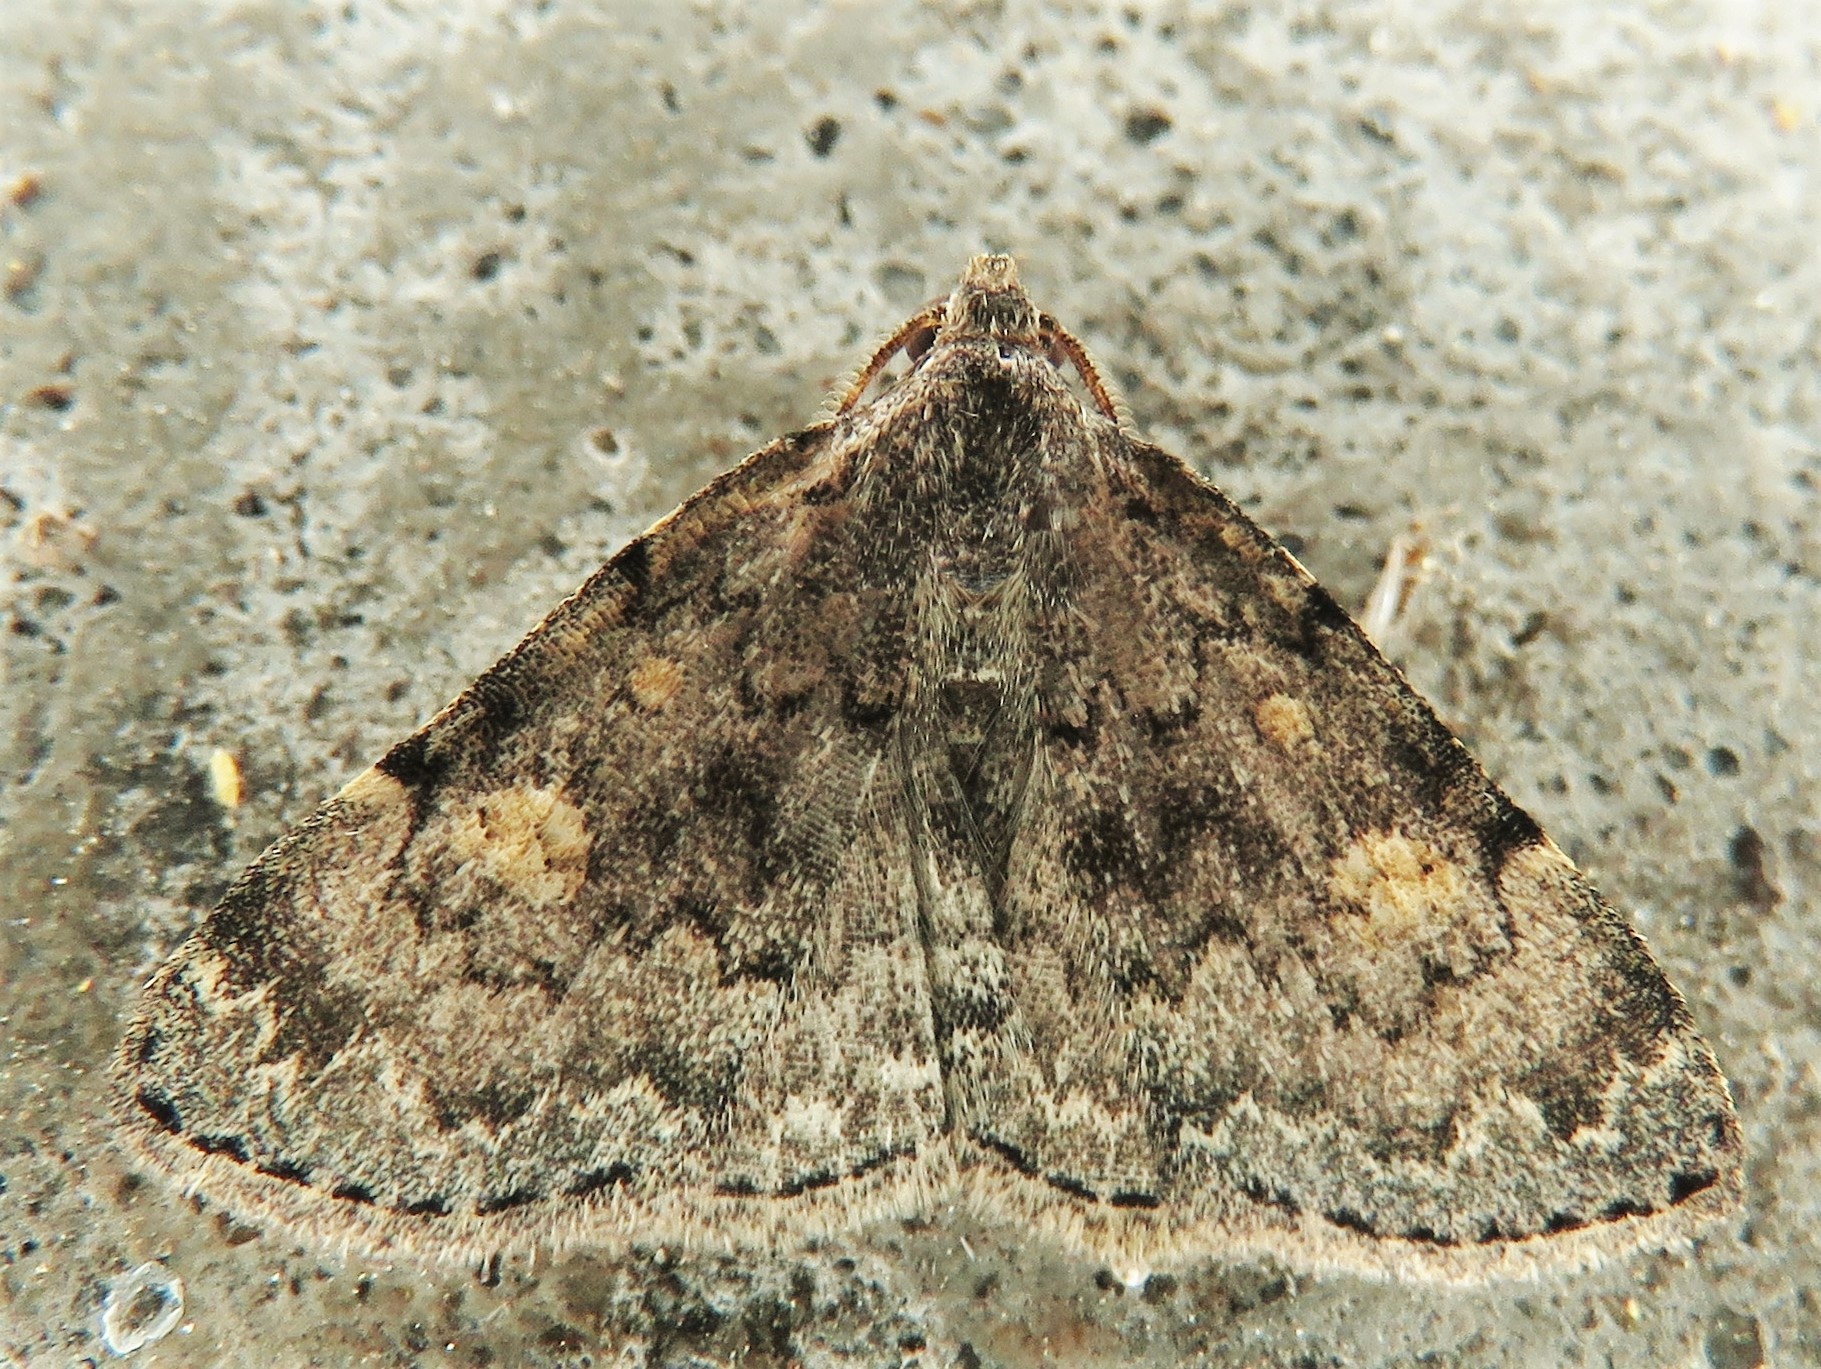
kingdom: Animalia
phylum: Arthropoda
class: Insecta
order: Lepidoptera
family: Erebidae
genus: Idia
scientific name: Idia aemula
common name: Common idia moth
